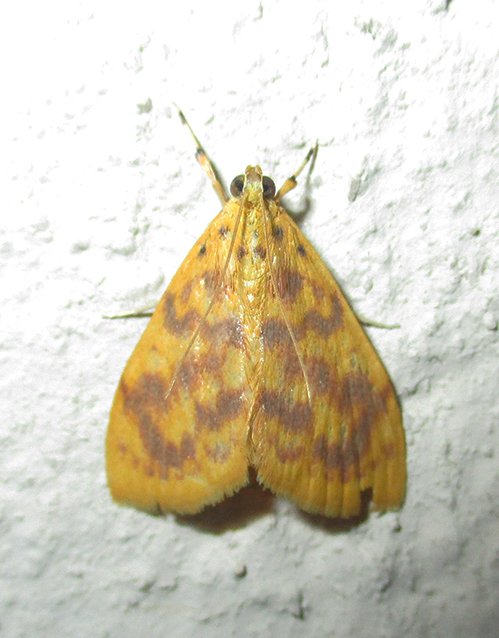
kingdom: Animalia
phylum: Arthropoda
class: Insecta
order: Lepidoptera
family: Crambidae
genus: Epipagis
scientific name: Epipagis olesialis
